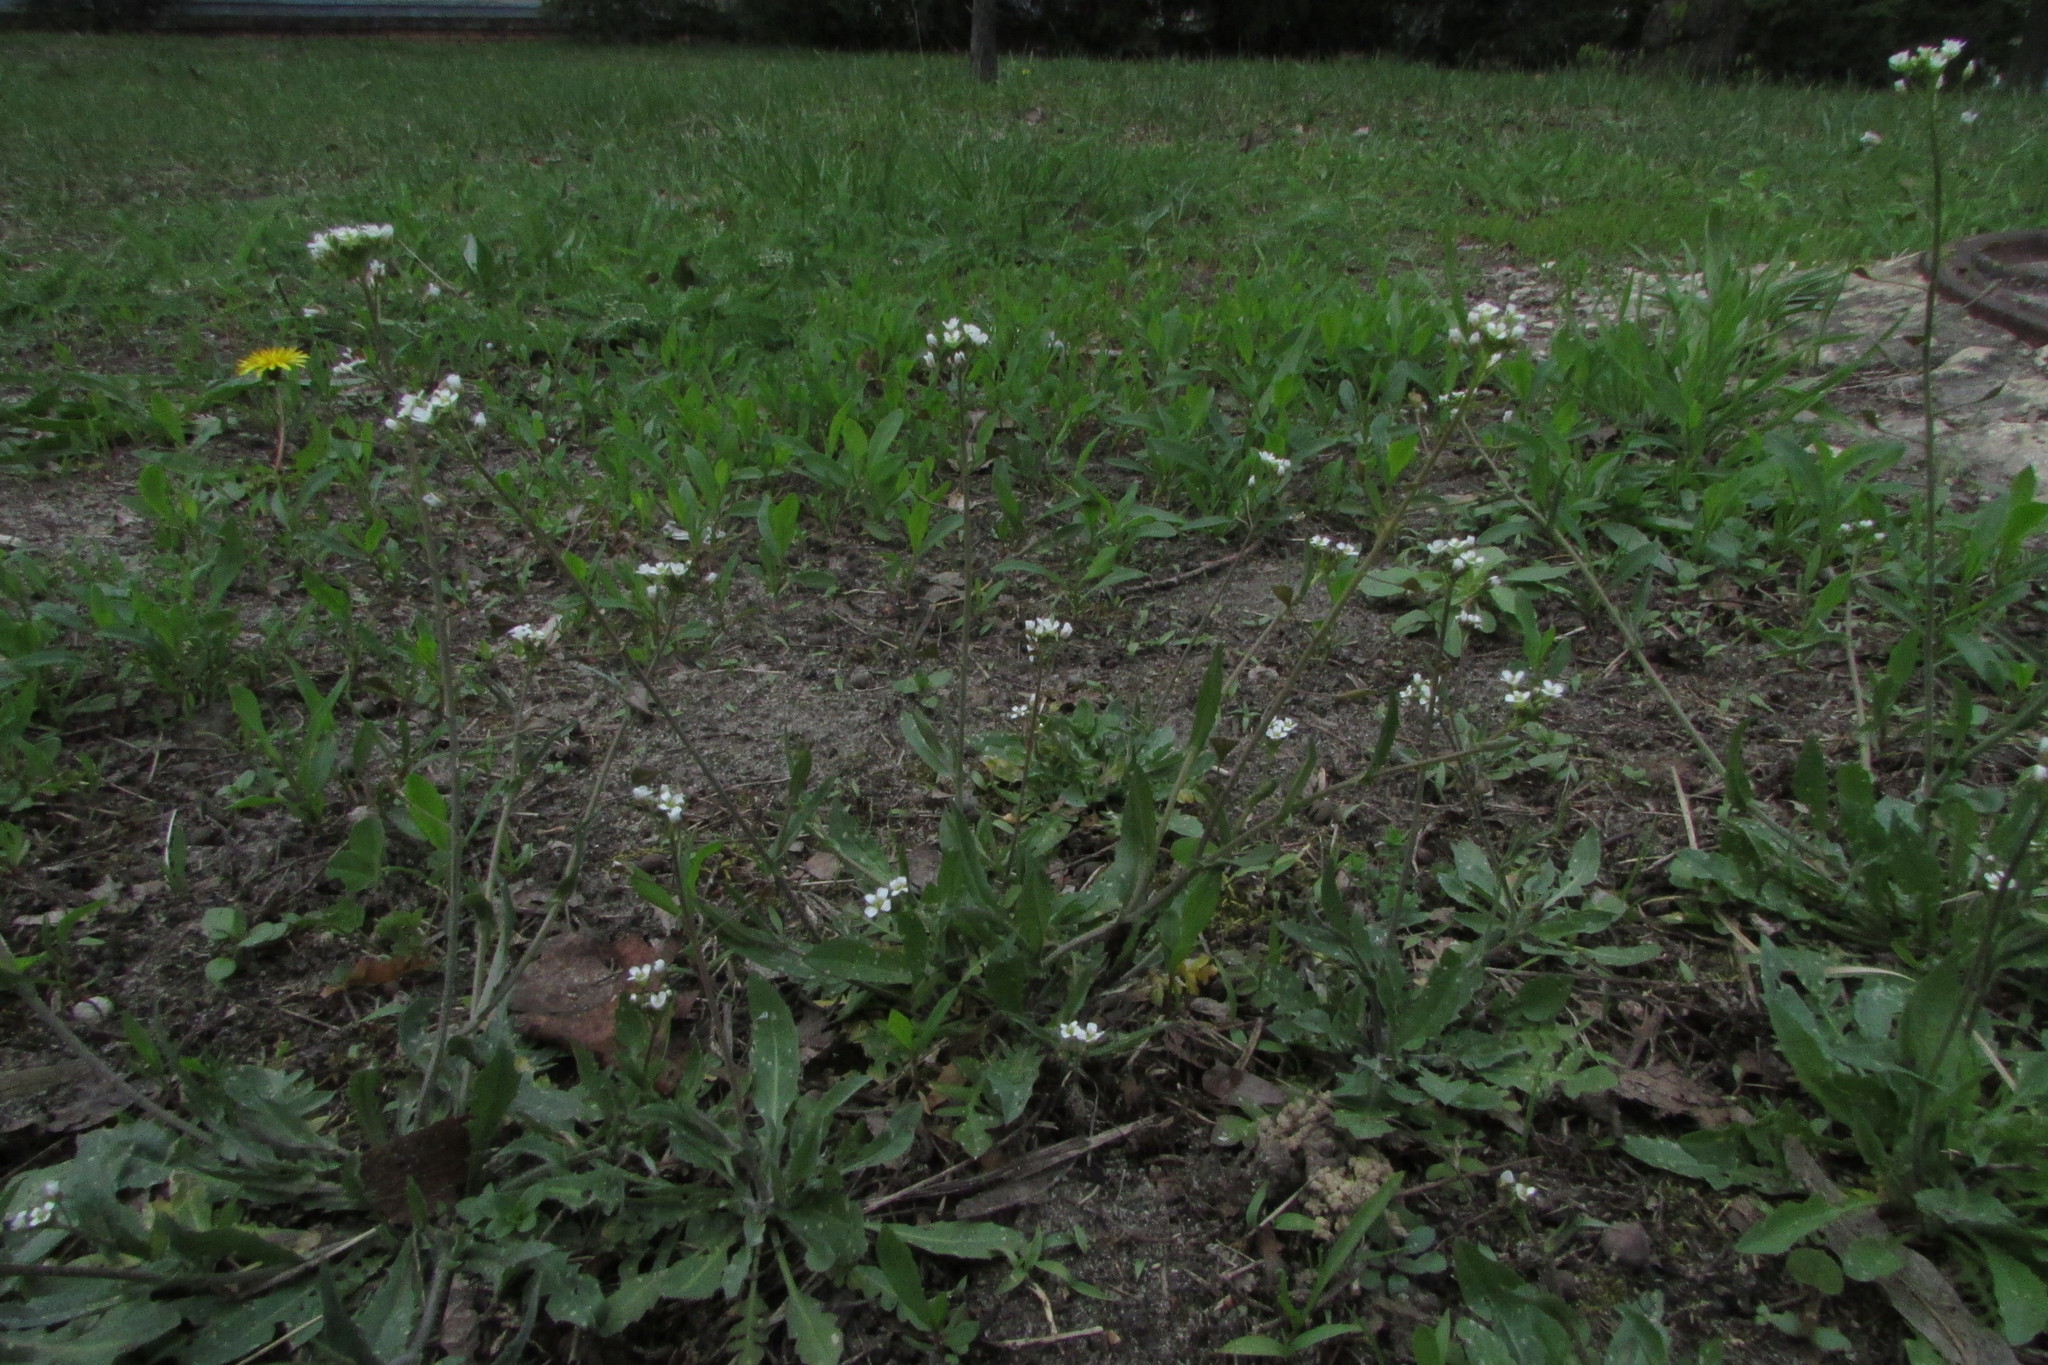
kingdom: Plantae
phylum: Tracheophyta
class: Magnoliopsida
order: Brassicales
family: Brassicaceae
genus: Capsella
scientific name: Capsella bursa-pastoris
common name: Shepherd's purse
